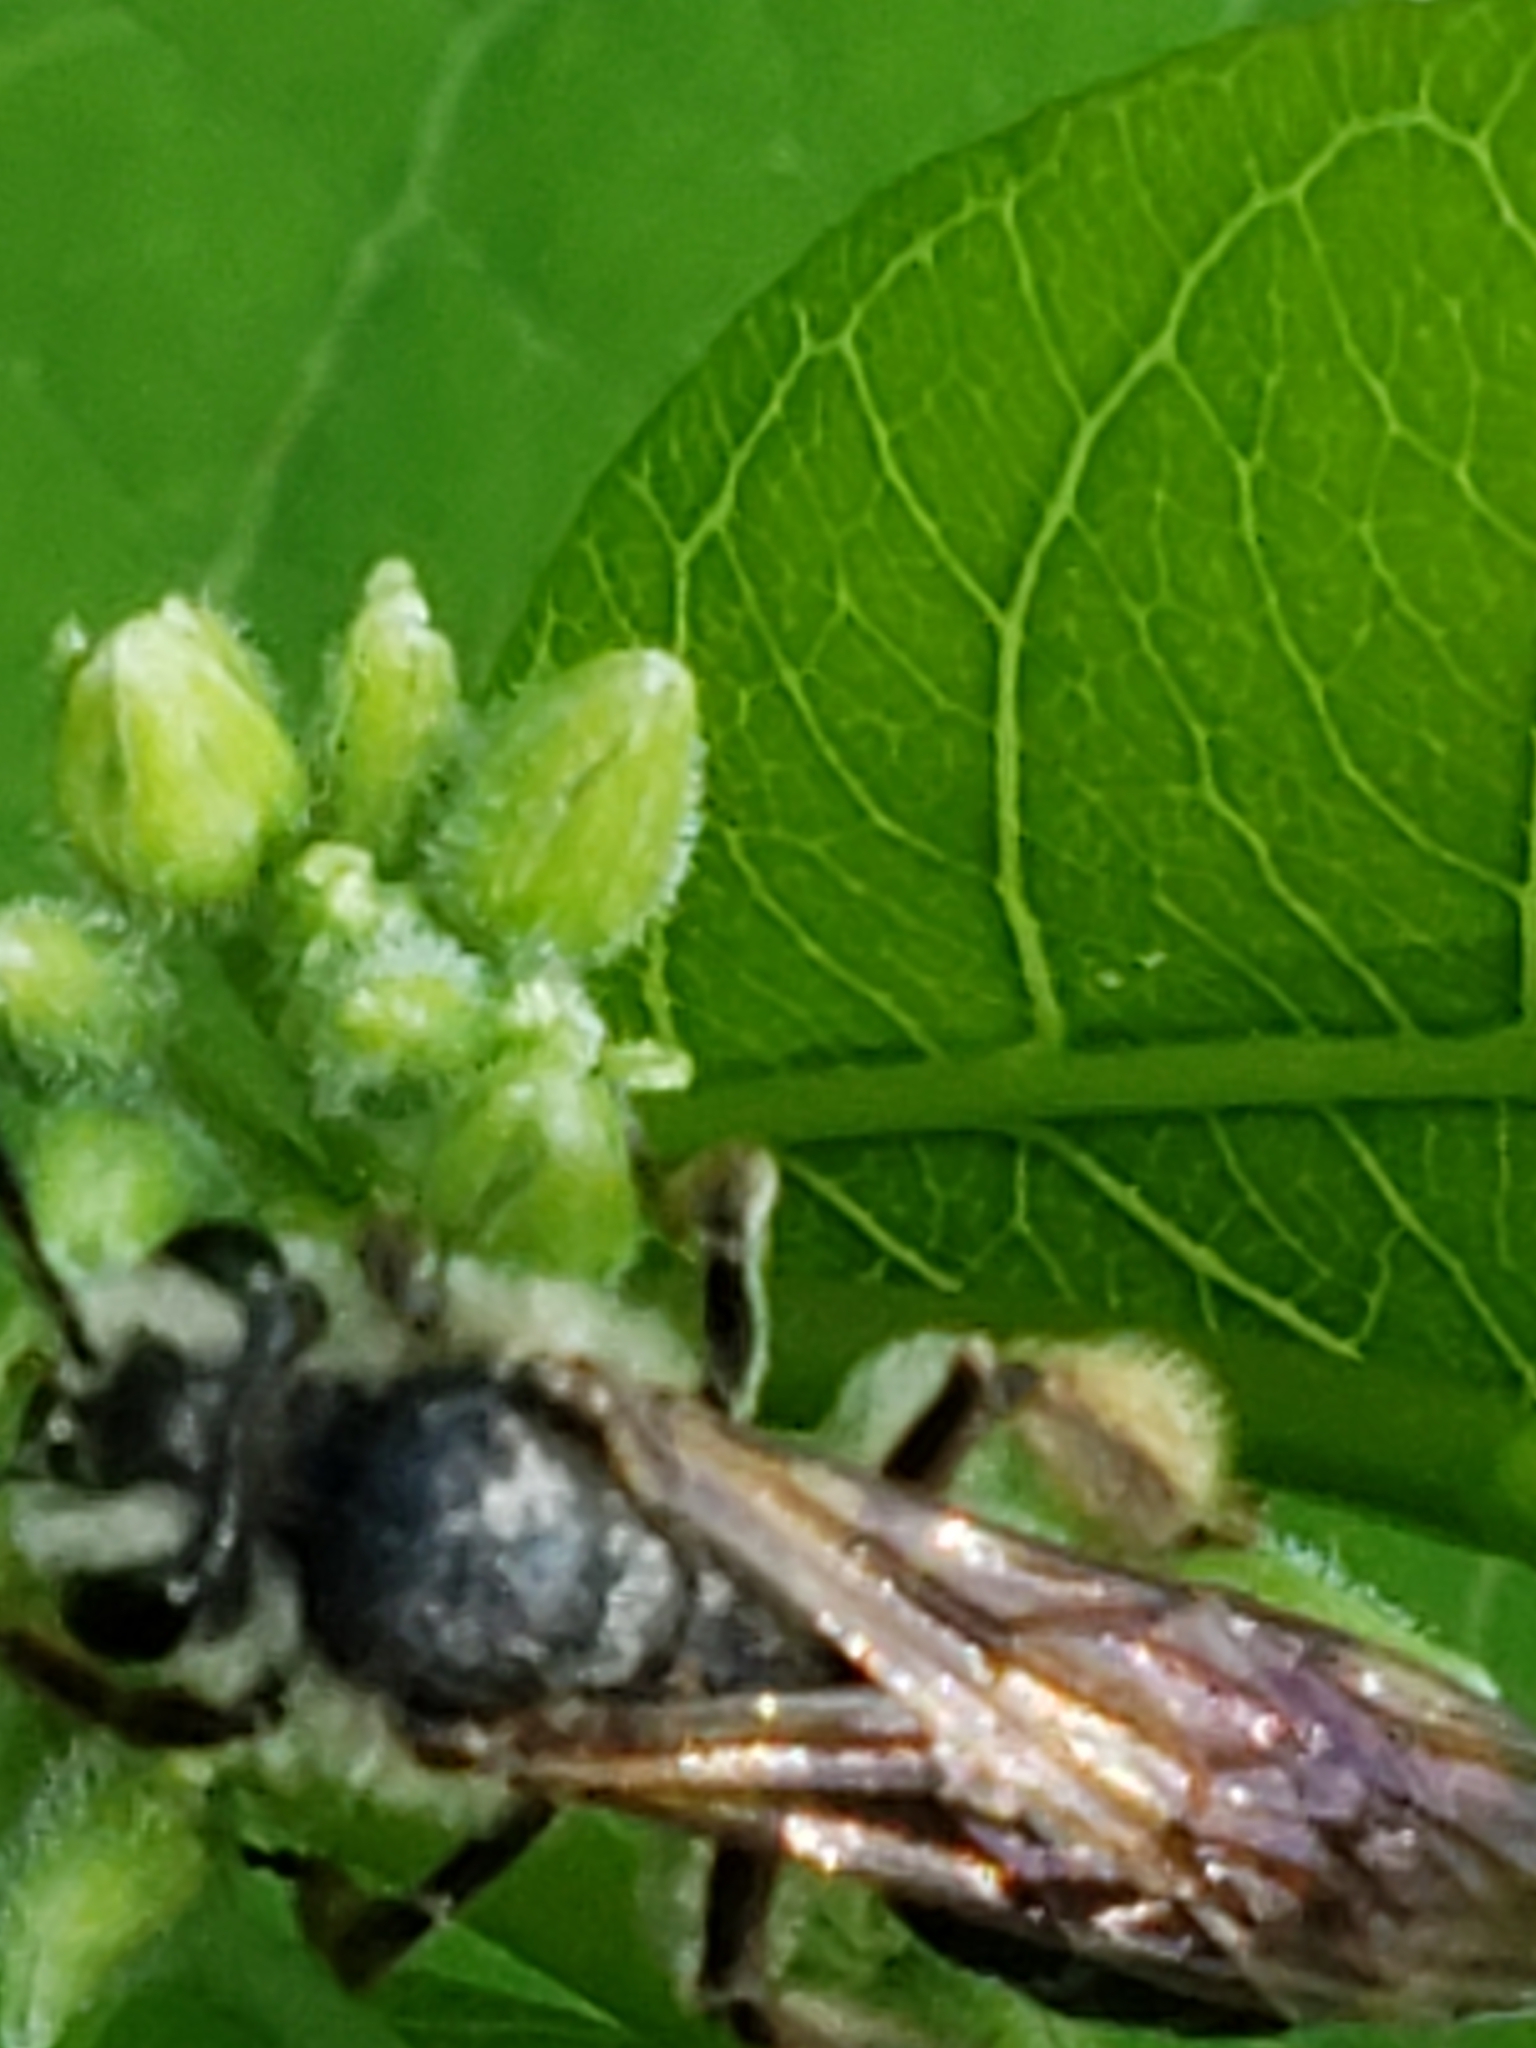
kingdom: Animalia
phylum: Arthropoda
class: Insecta
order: Hymenoptera
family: Andrenidae
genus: Andrena
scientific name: Andrena crataegi
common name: Hawthorn mining bee
